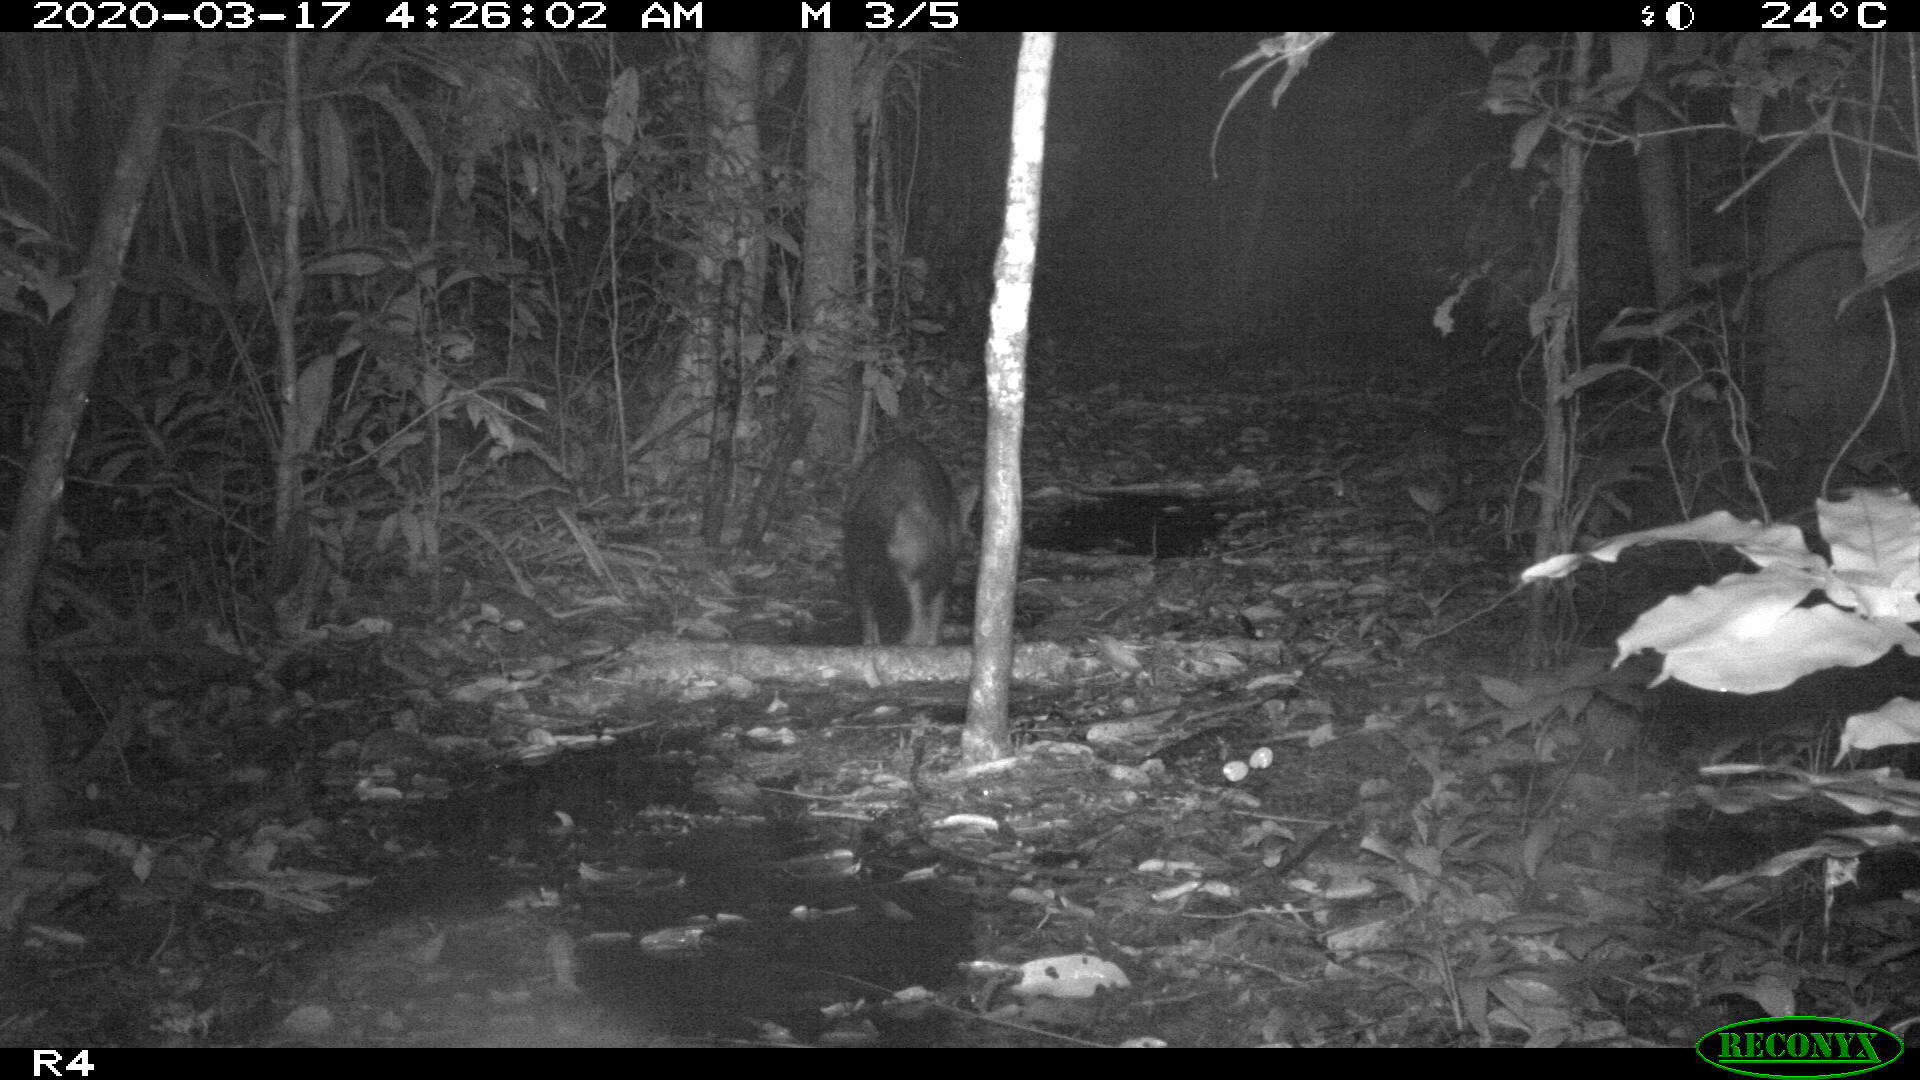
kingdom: Animalia
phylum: Chordata
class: Mammalia
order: Carnivora
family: Procyonidae
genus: Procyon
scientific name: Procyon cancrivorus
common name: Crab-eating raccoon
